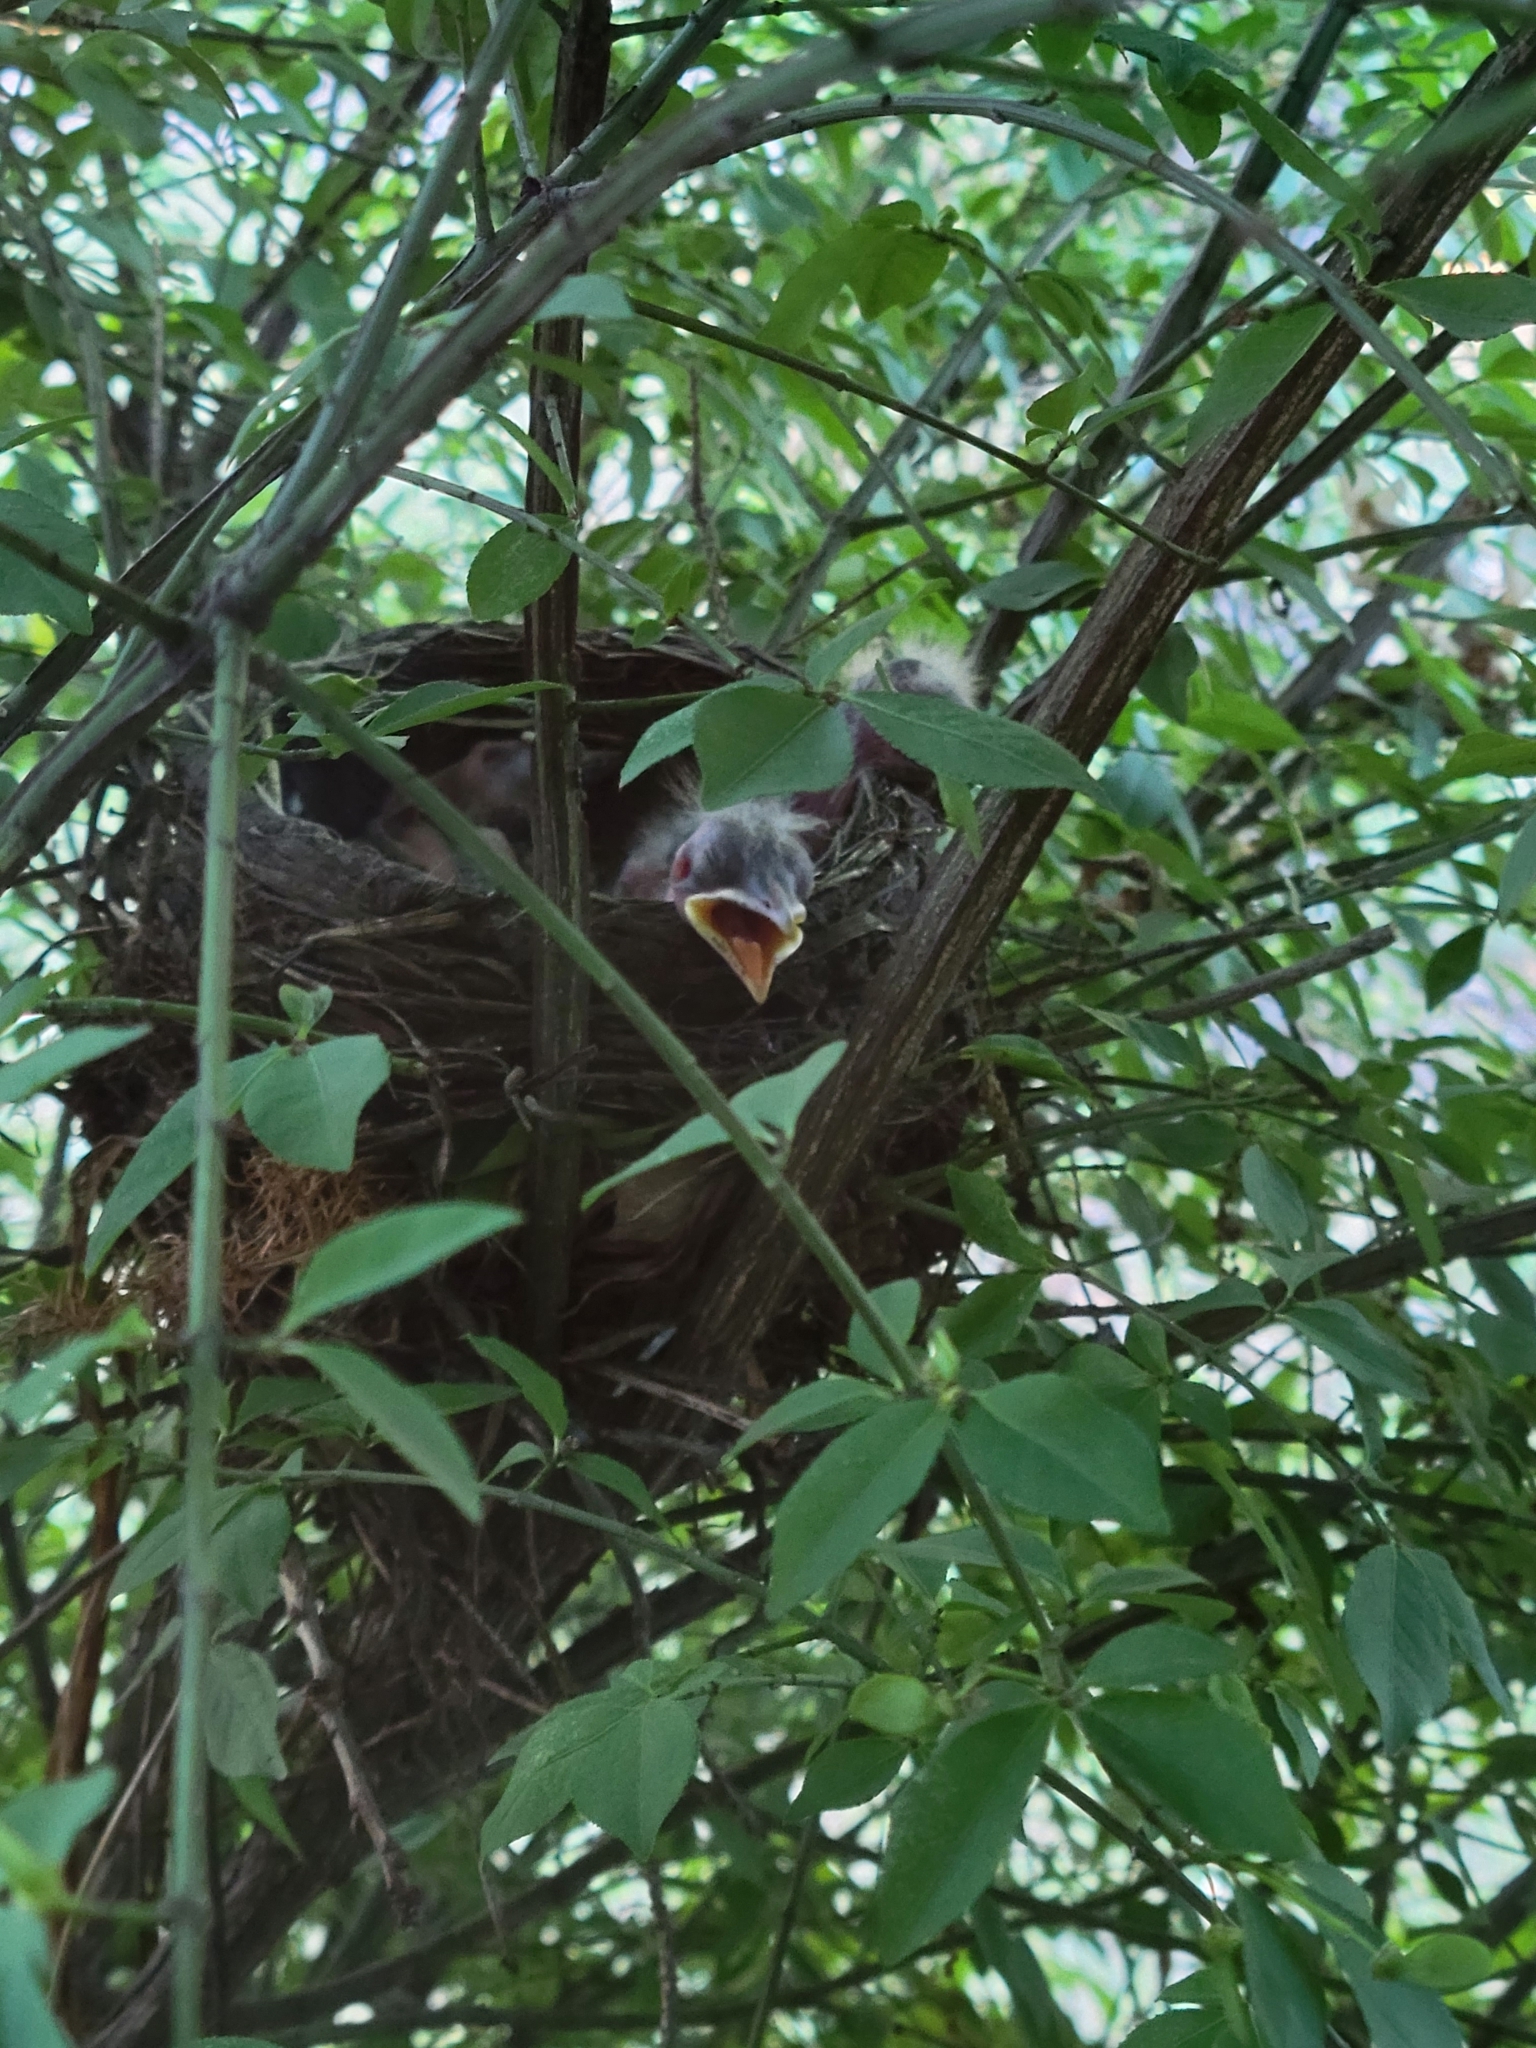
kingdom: Animalia
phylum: Chordata
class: Aves
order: Passeriformes
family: Turdidae
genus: Turdus
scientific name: Turdus migratorius
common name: American robin
